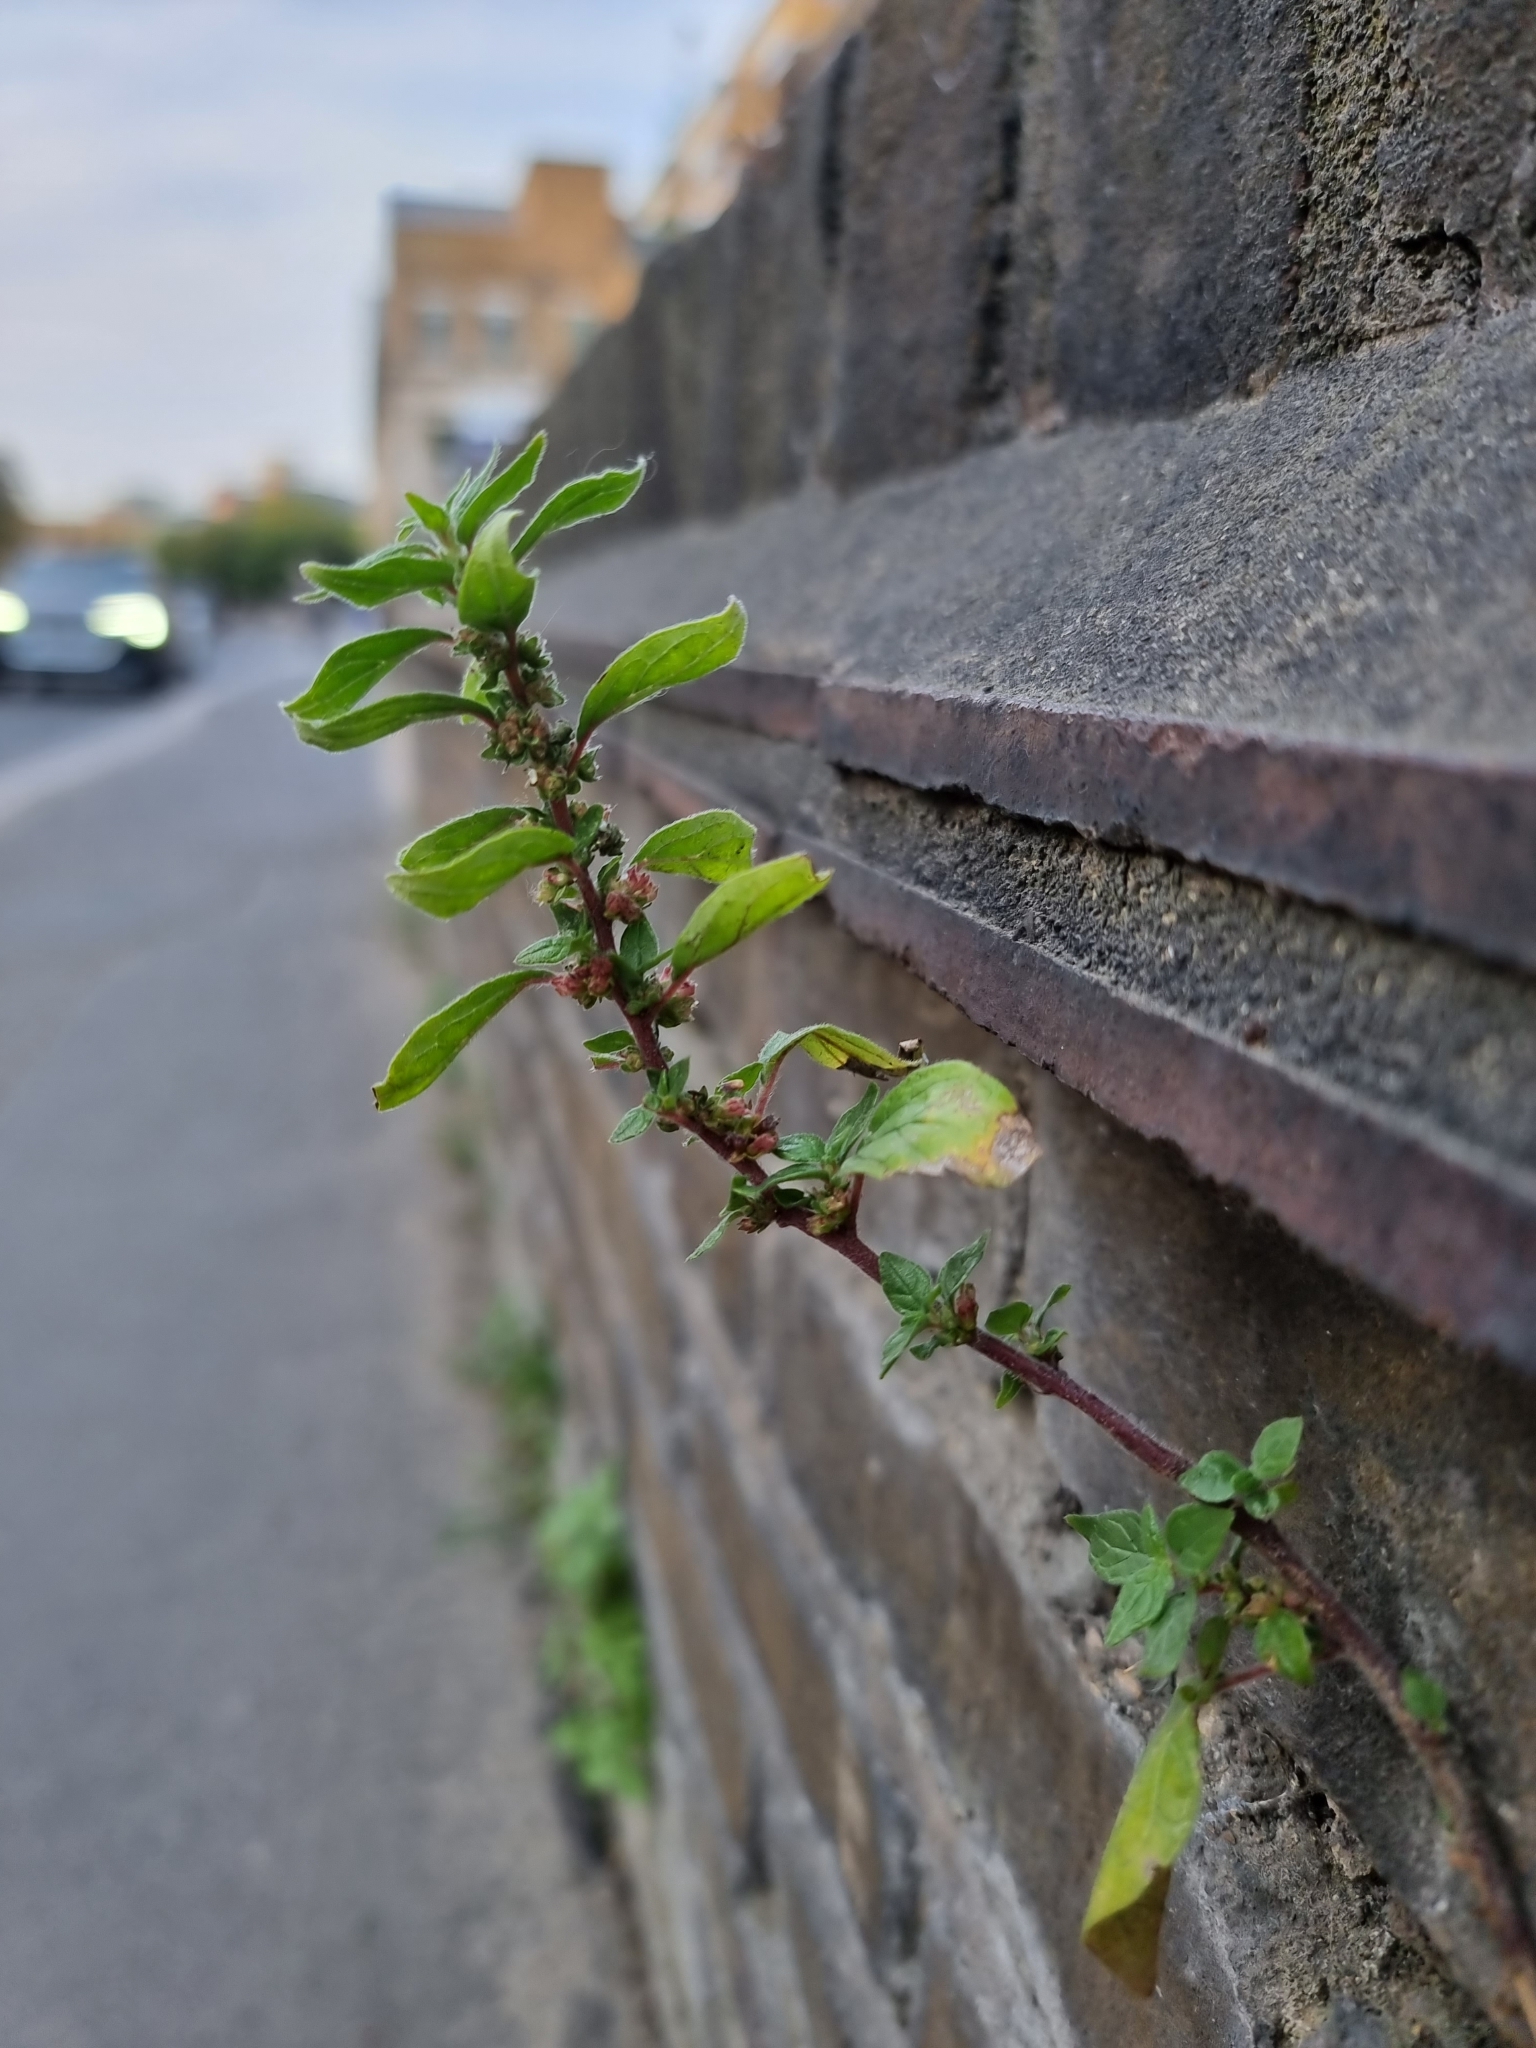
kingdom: Plantae
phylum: Tracheophyta
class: Magnoliopsida
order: Rosales
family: Urticaceae
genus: Parietaria
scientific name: Parietaria judaica
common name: Pellitory-of-the-wall
